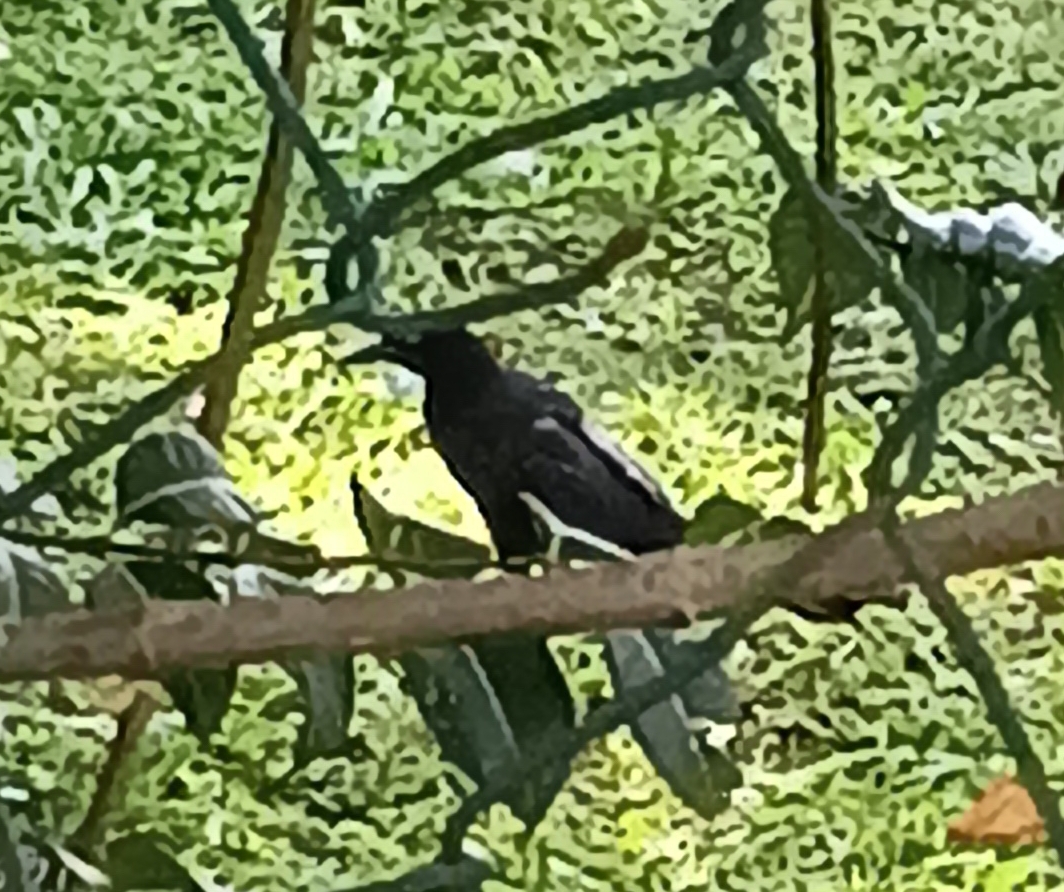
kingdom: Animalia
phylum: Chordata
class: Aves
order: Passeriformes
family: Icteridae
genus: Quiscalus
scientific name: Quiscalus mexicanus
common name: Great-tailed grackle
